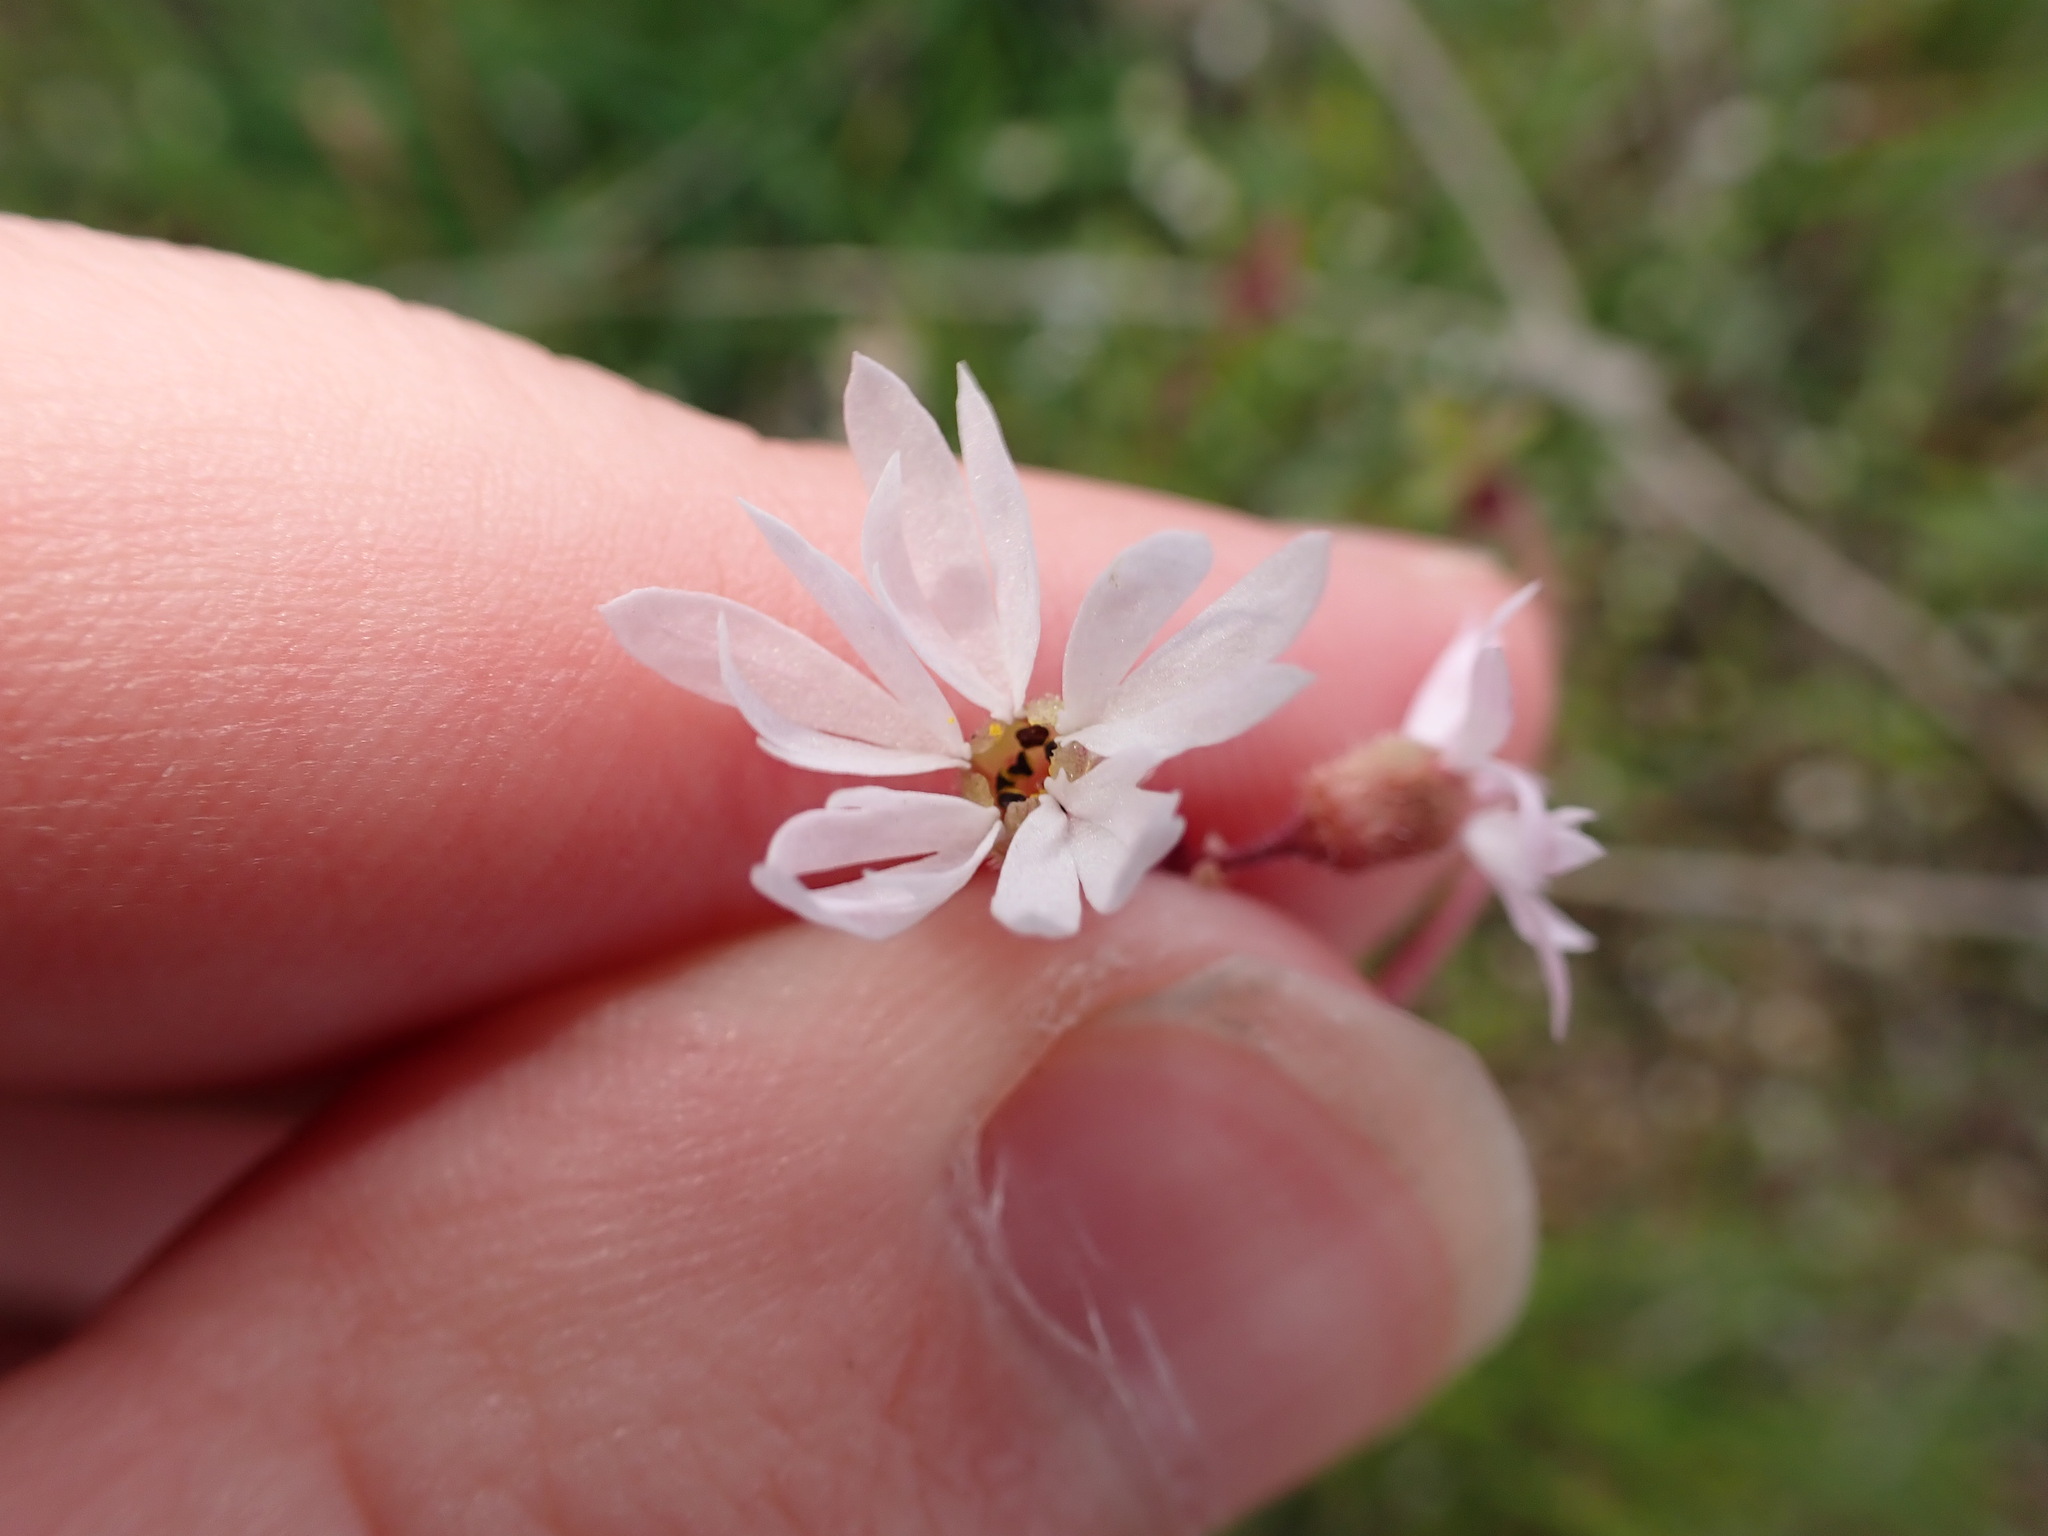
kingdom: Plantae
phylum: Tracheophyta
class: Magnoliopsida
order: Saxifragales
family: Saxifragaceae
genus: Lithophragma
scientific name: Lithophragma glabrum
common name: Bulbous prairie-star
